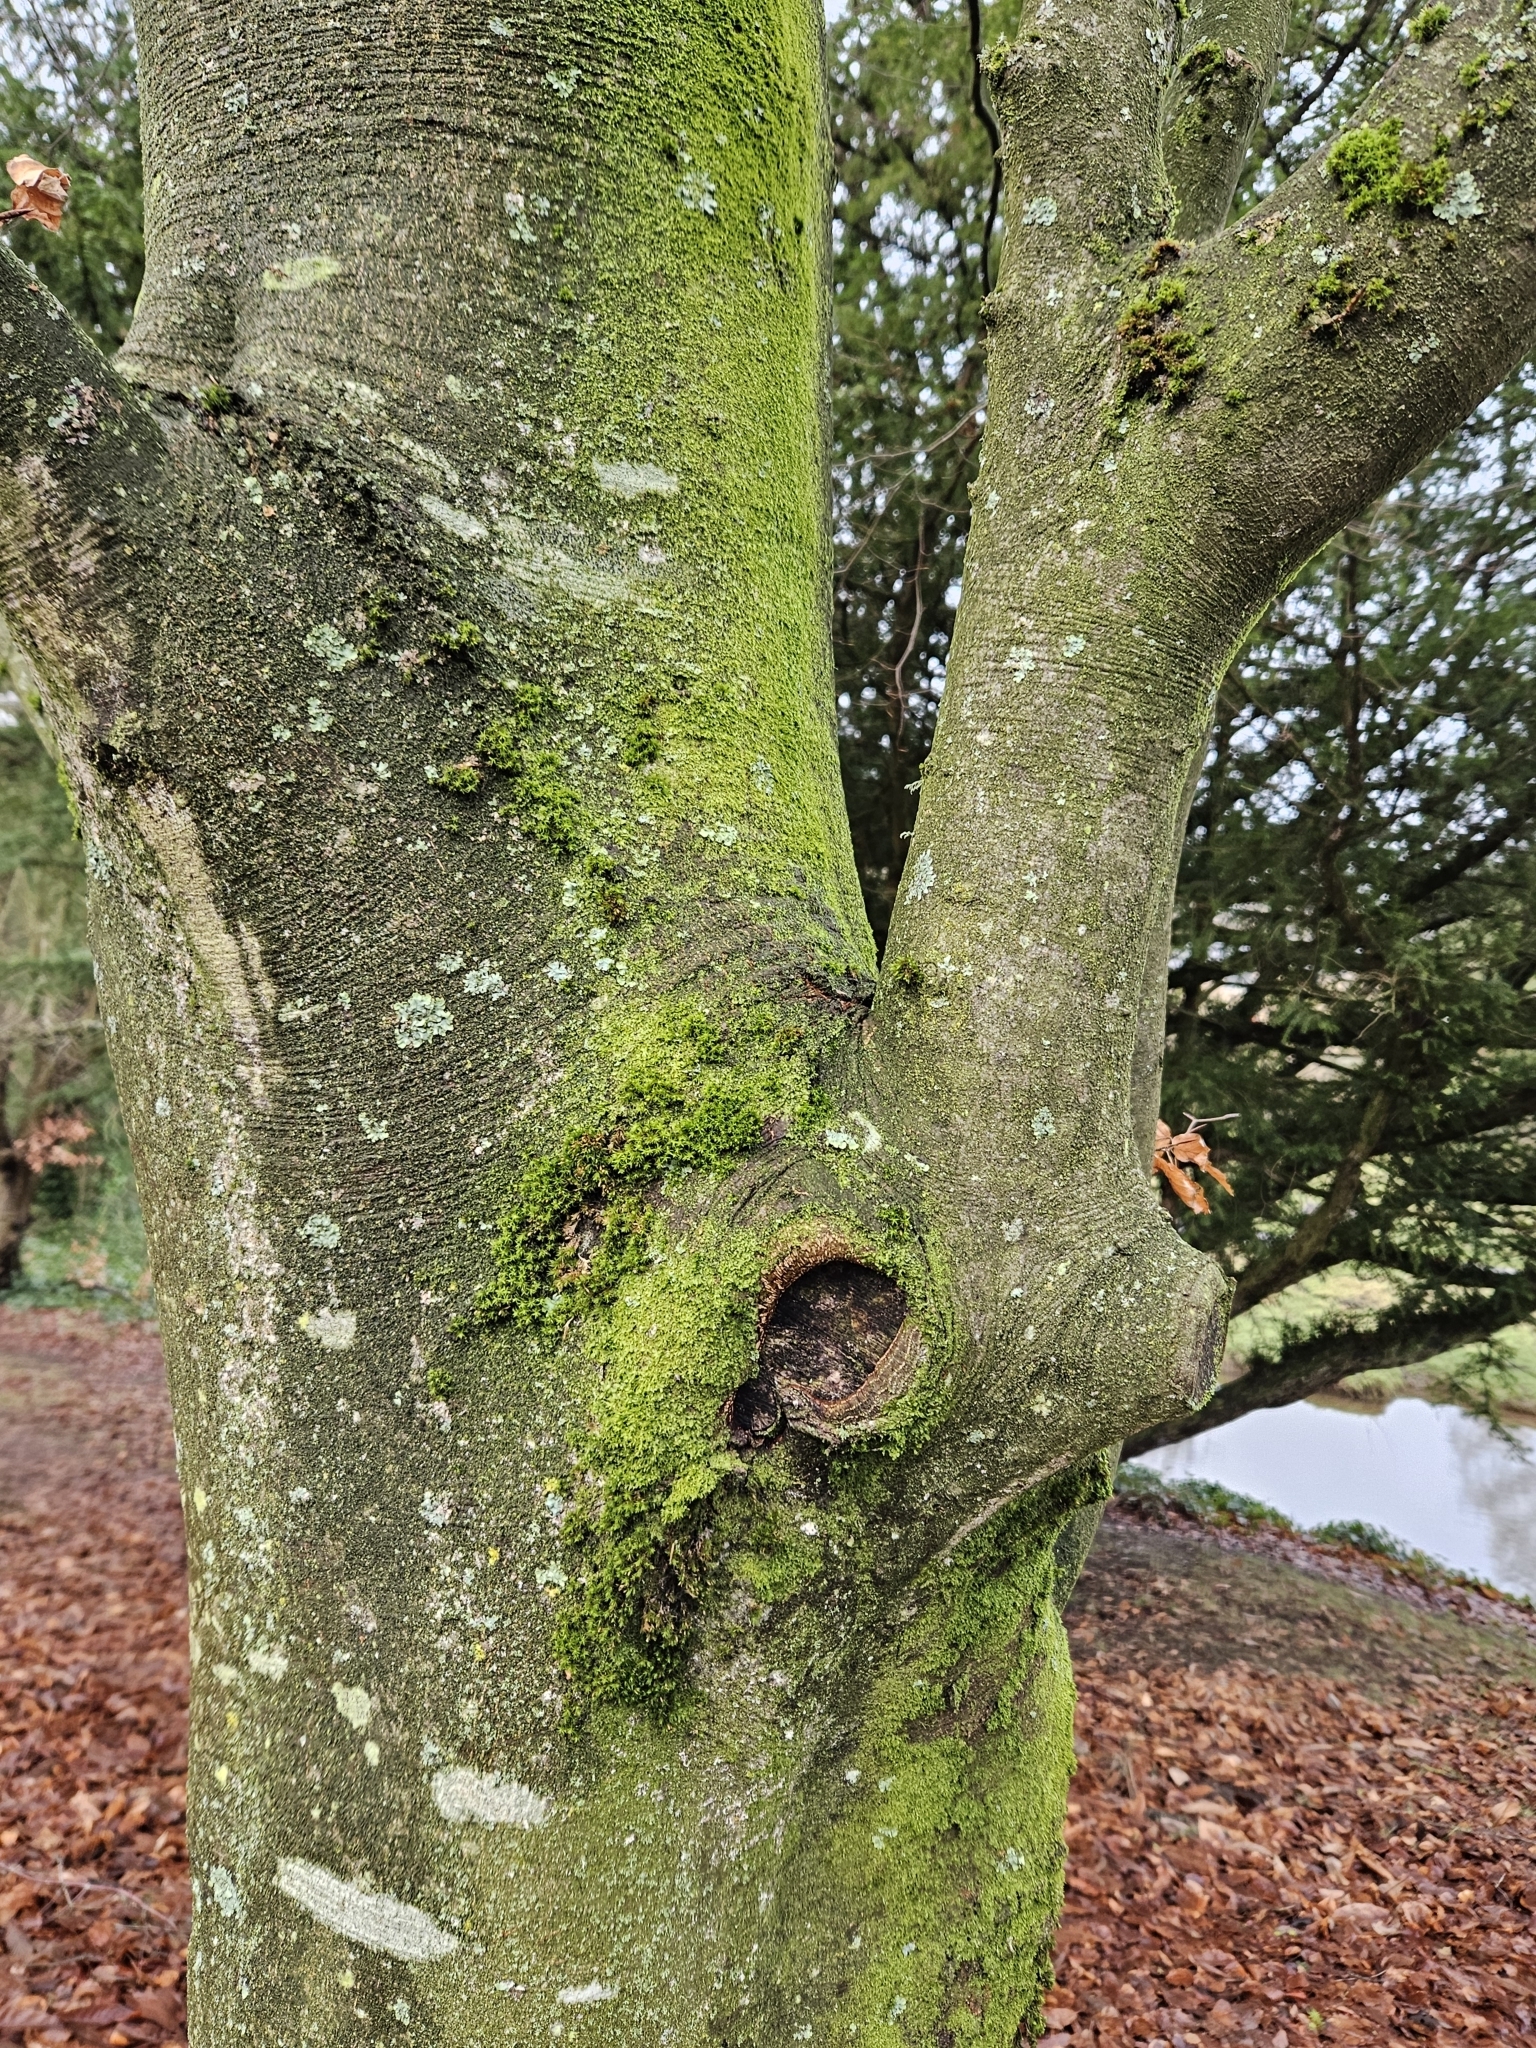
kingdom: Plantae
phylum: Marchantiophyta
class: Jungermanniopsida
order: Metzgeriales
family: Metzgeriaceae
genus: Metzgeria
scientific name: Metzgeria furcata
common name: Forked veilwort
